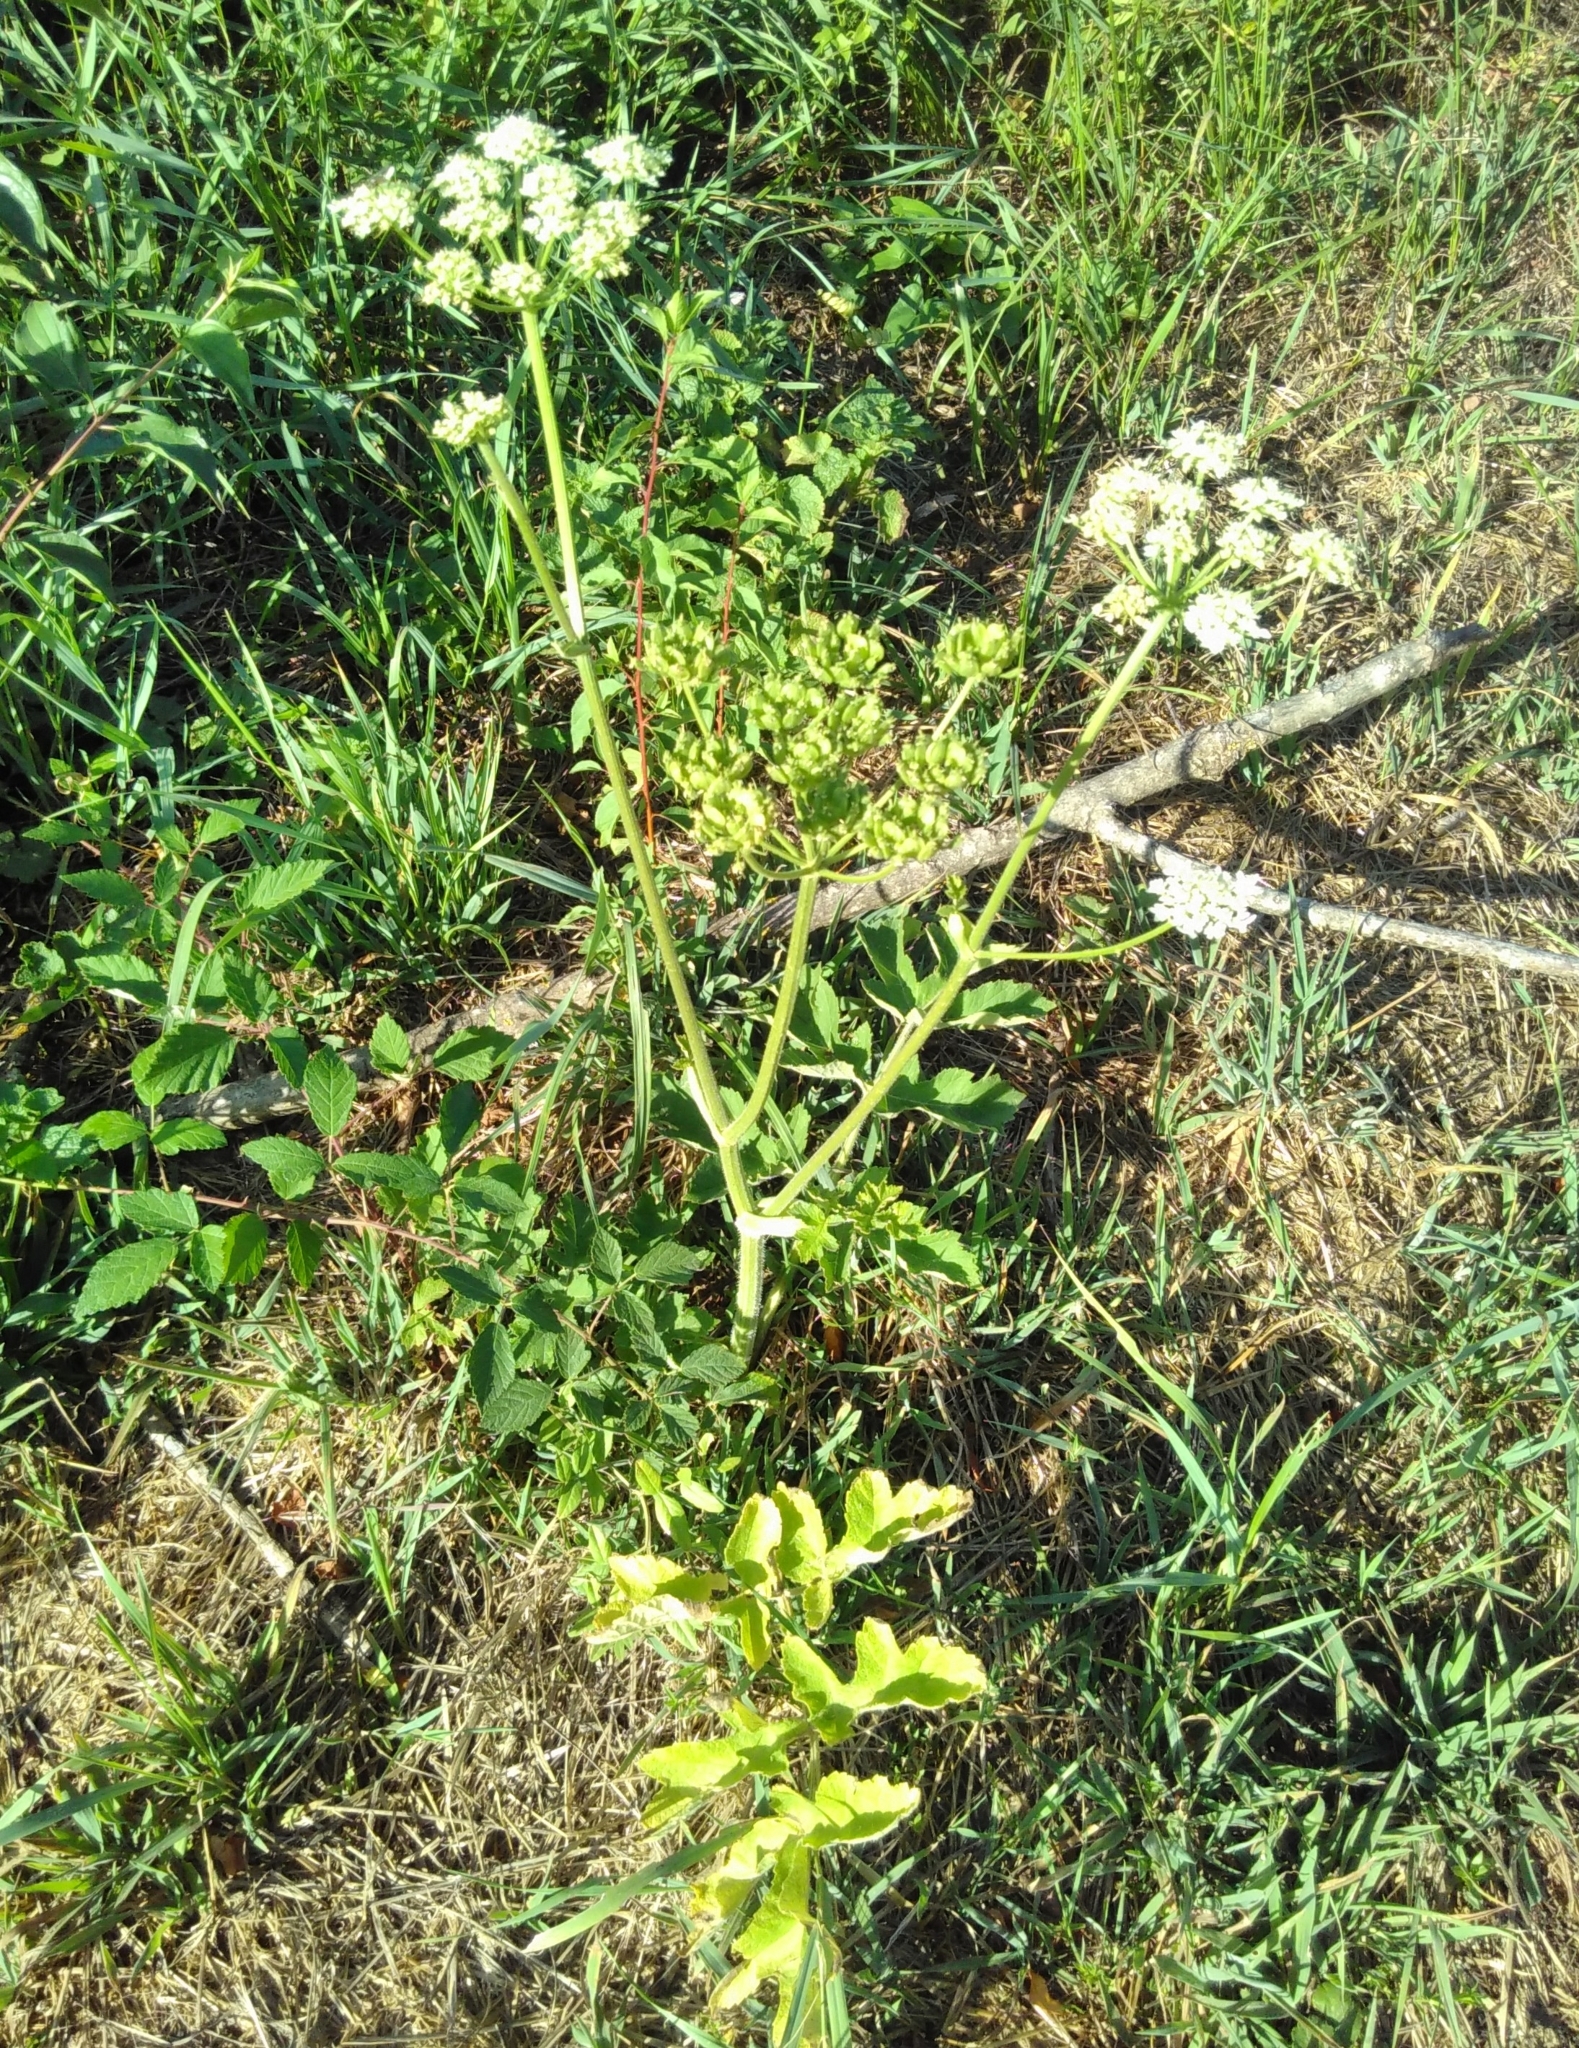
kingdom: Plantae
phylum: Tracheophyta
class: Magnoliopsida
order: Apiales
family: Apiaceae
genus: Heracleum
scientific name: Heracleum sphondylium
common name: Hogweed
